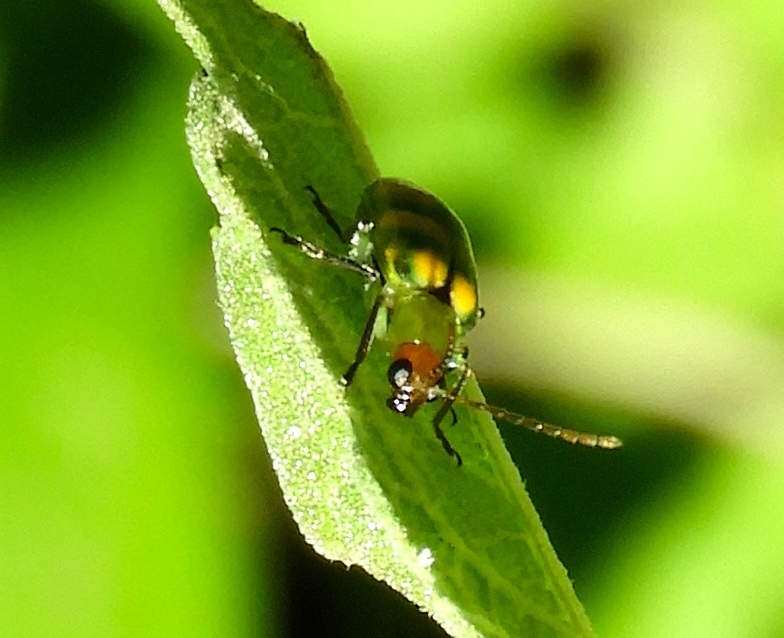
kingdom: Animalia
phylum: Arthropoda
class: Insecta
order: Coleoptera
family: Chrysomelidae
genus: Diabrotica
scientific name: Diabrotica balteata
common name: Leaf beetle
